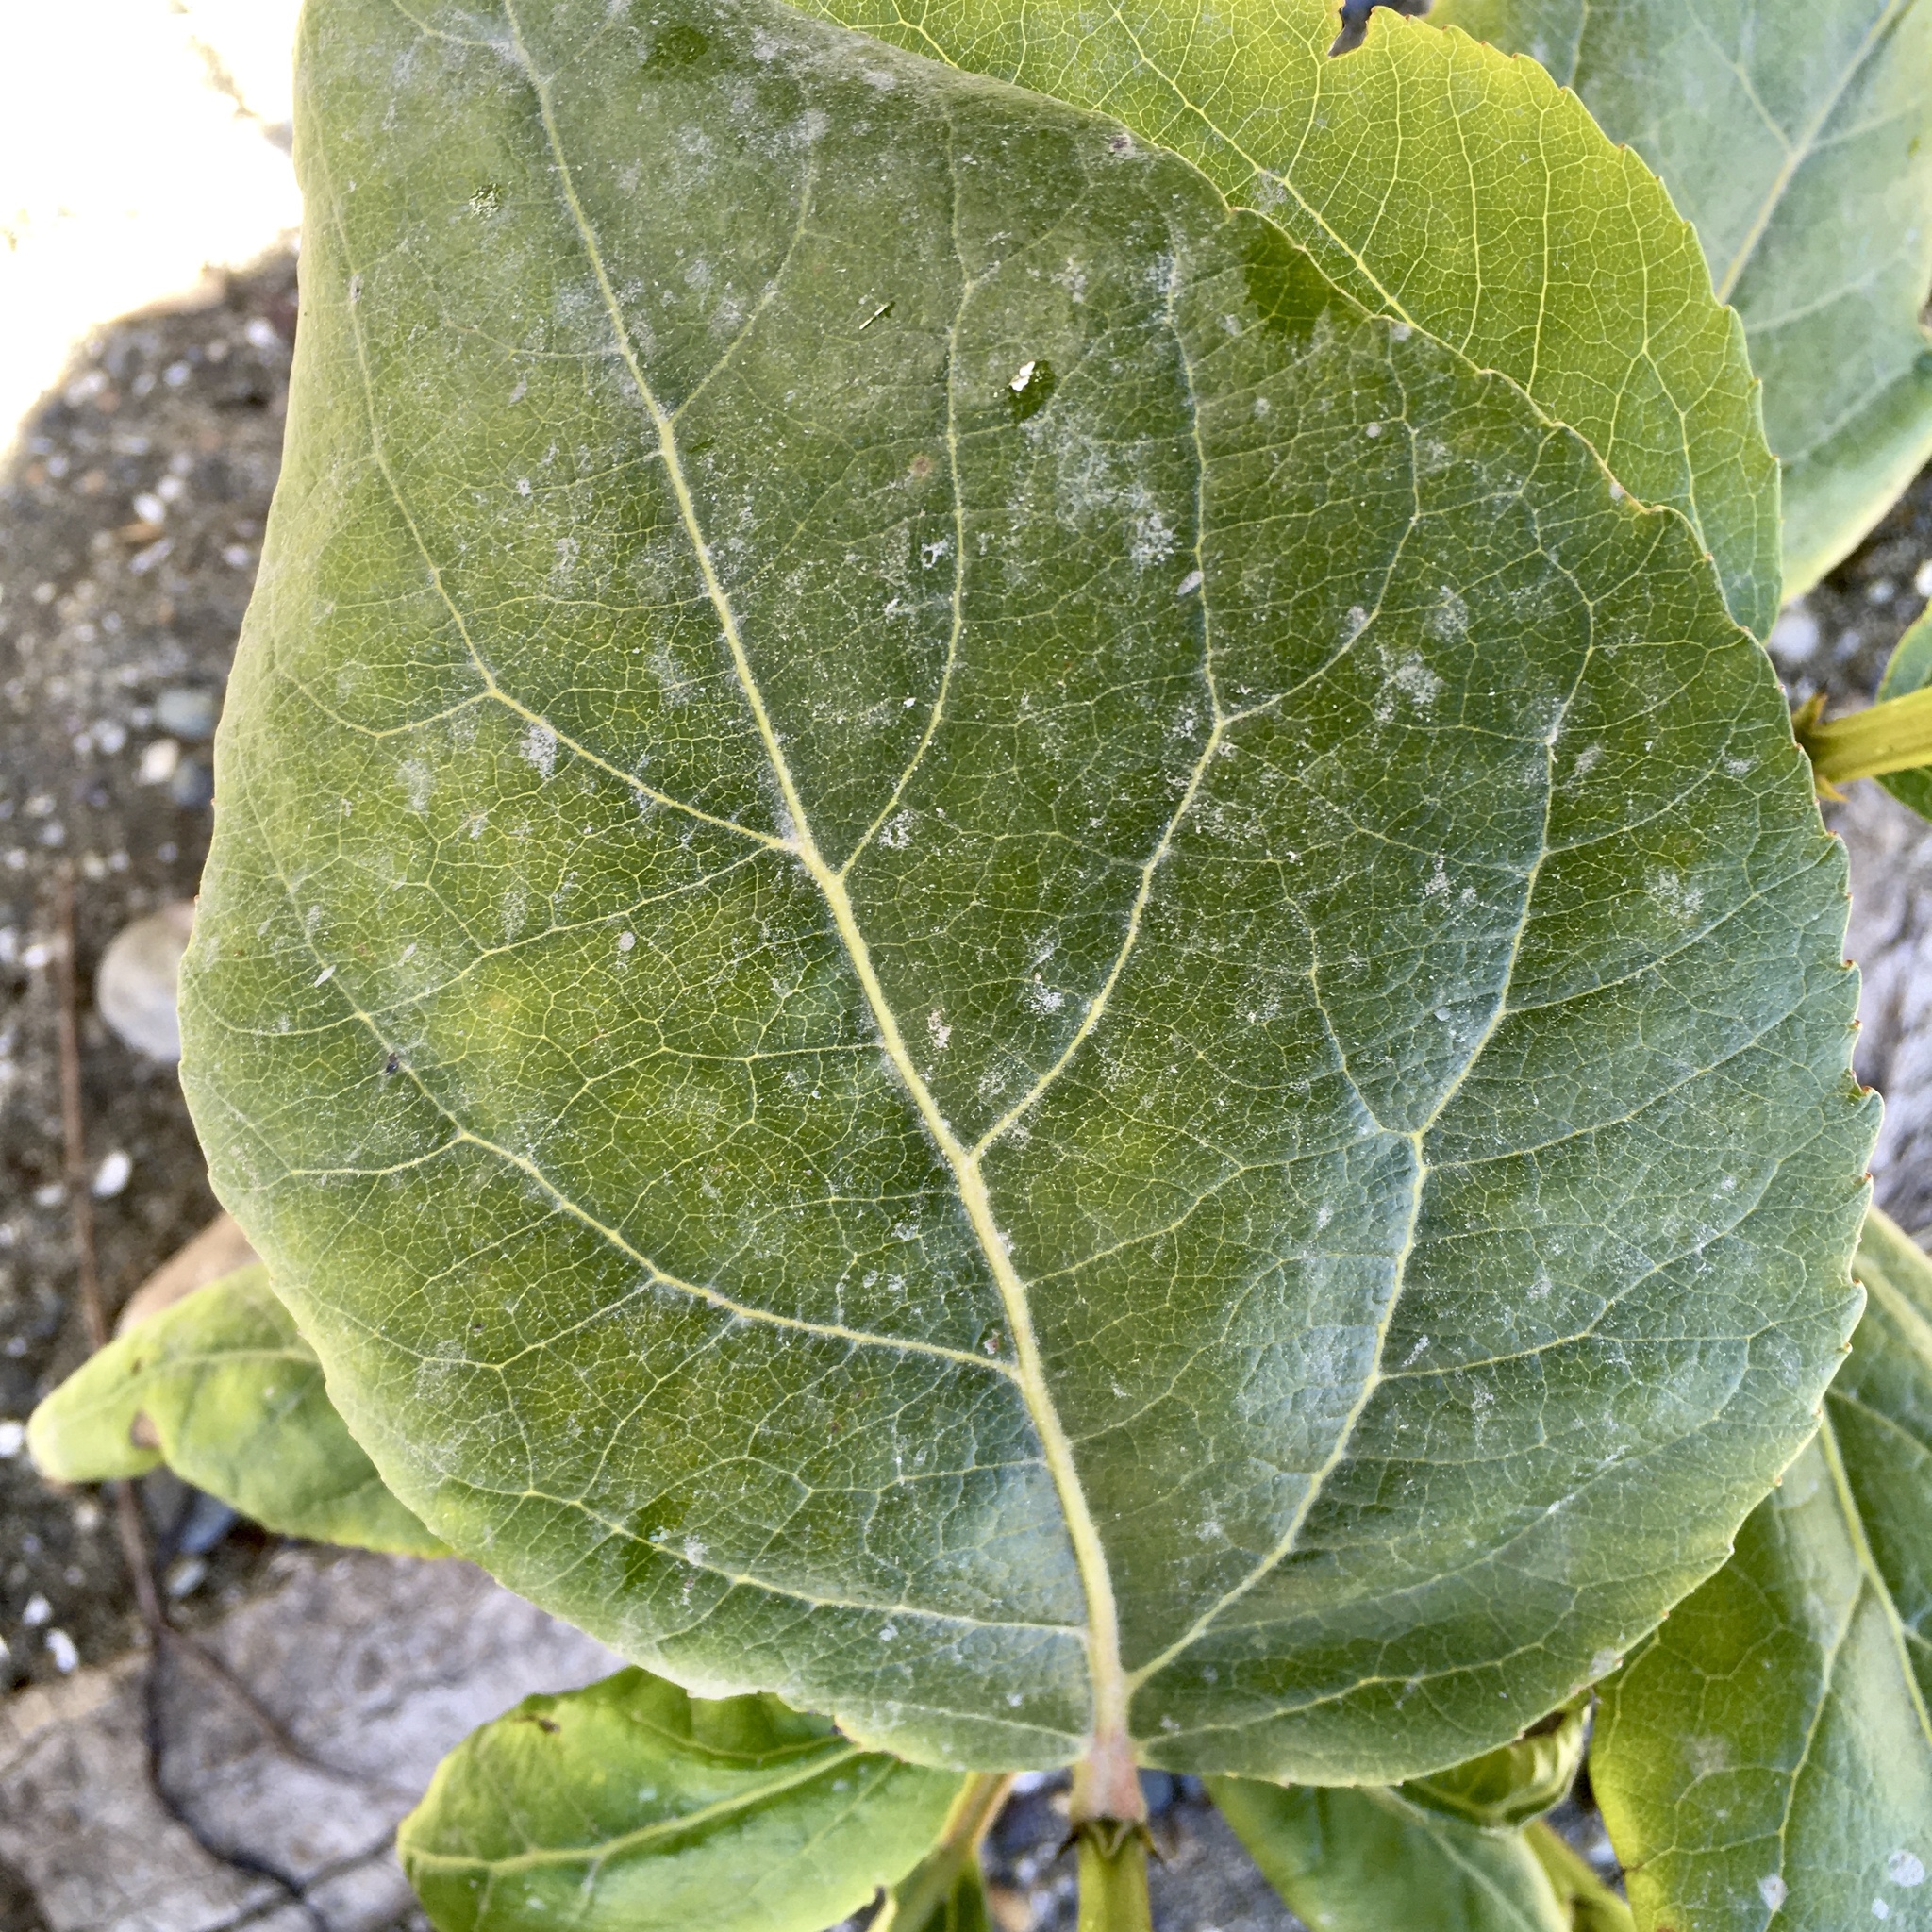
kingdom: Plantae
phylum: Tracheophyta
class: Magnoliopsida
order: Malpighiales
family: Salicaceae
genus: Populus
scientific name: Populus trichocarpa
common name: Black cottonwood
